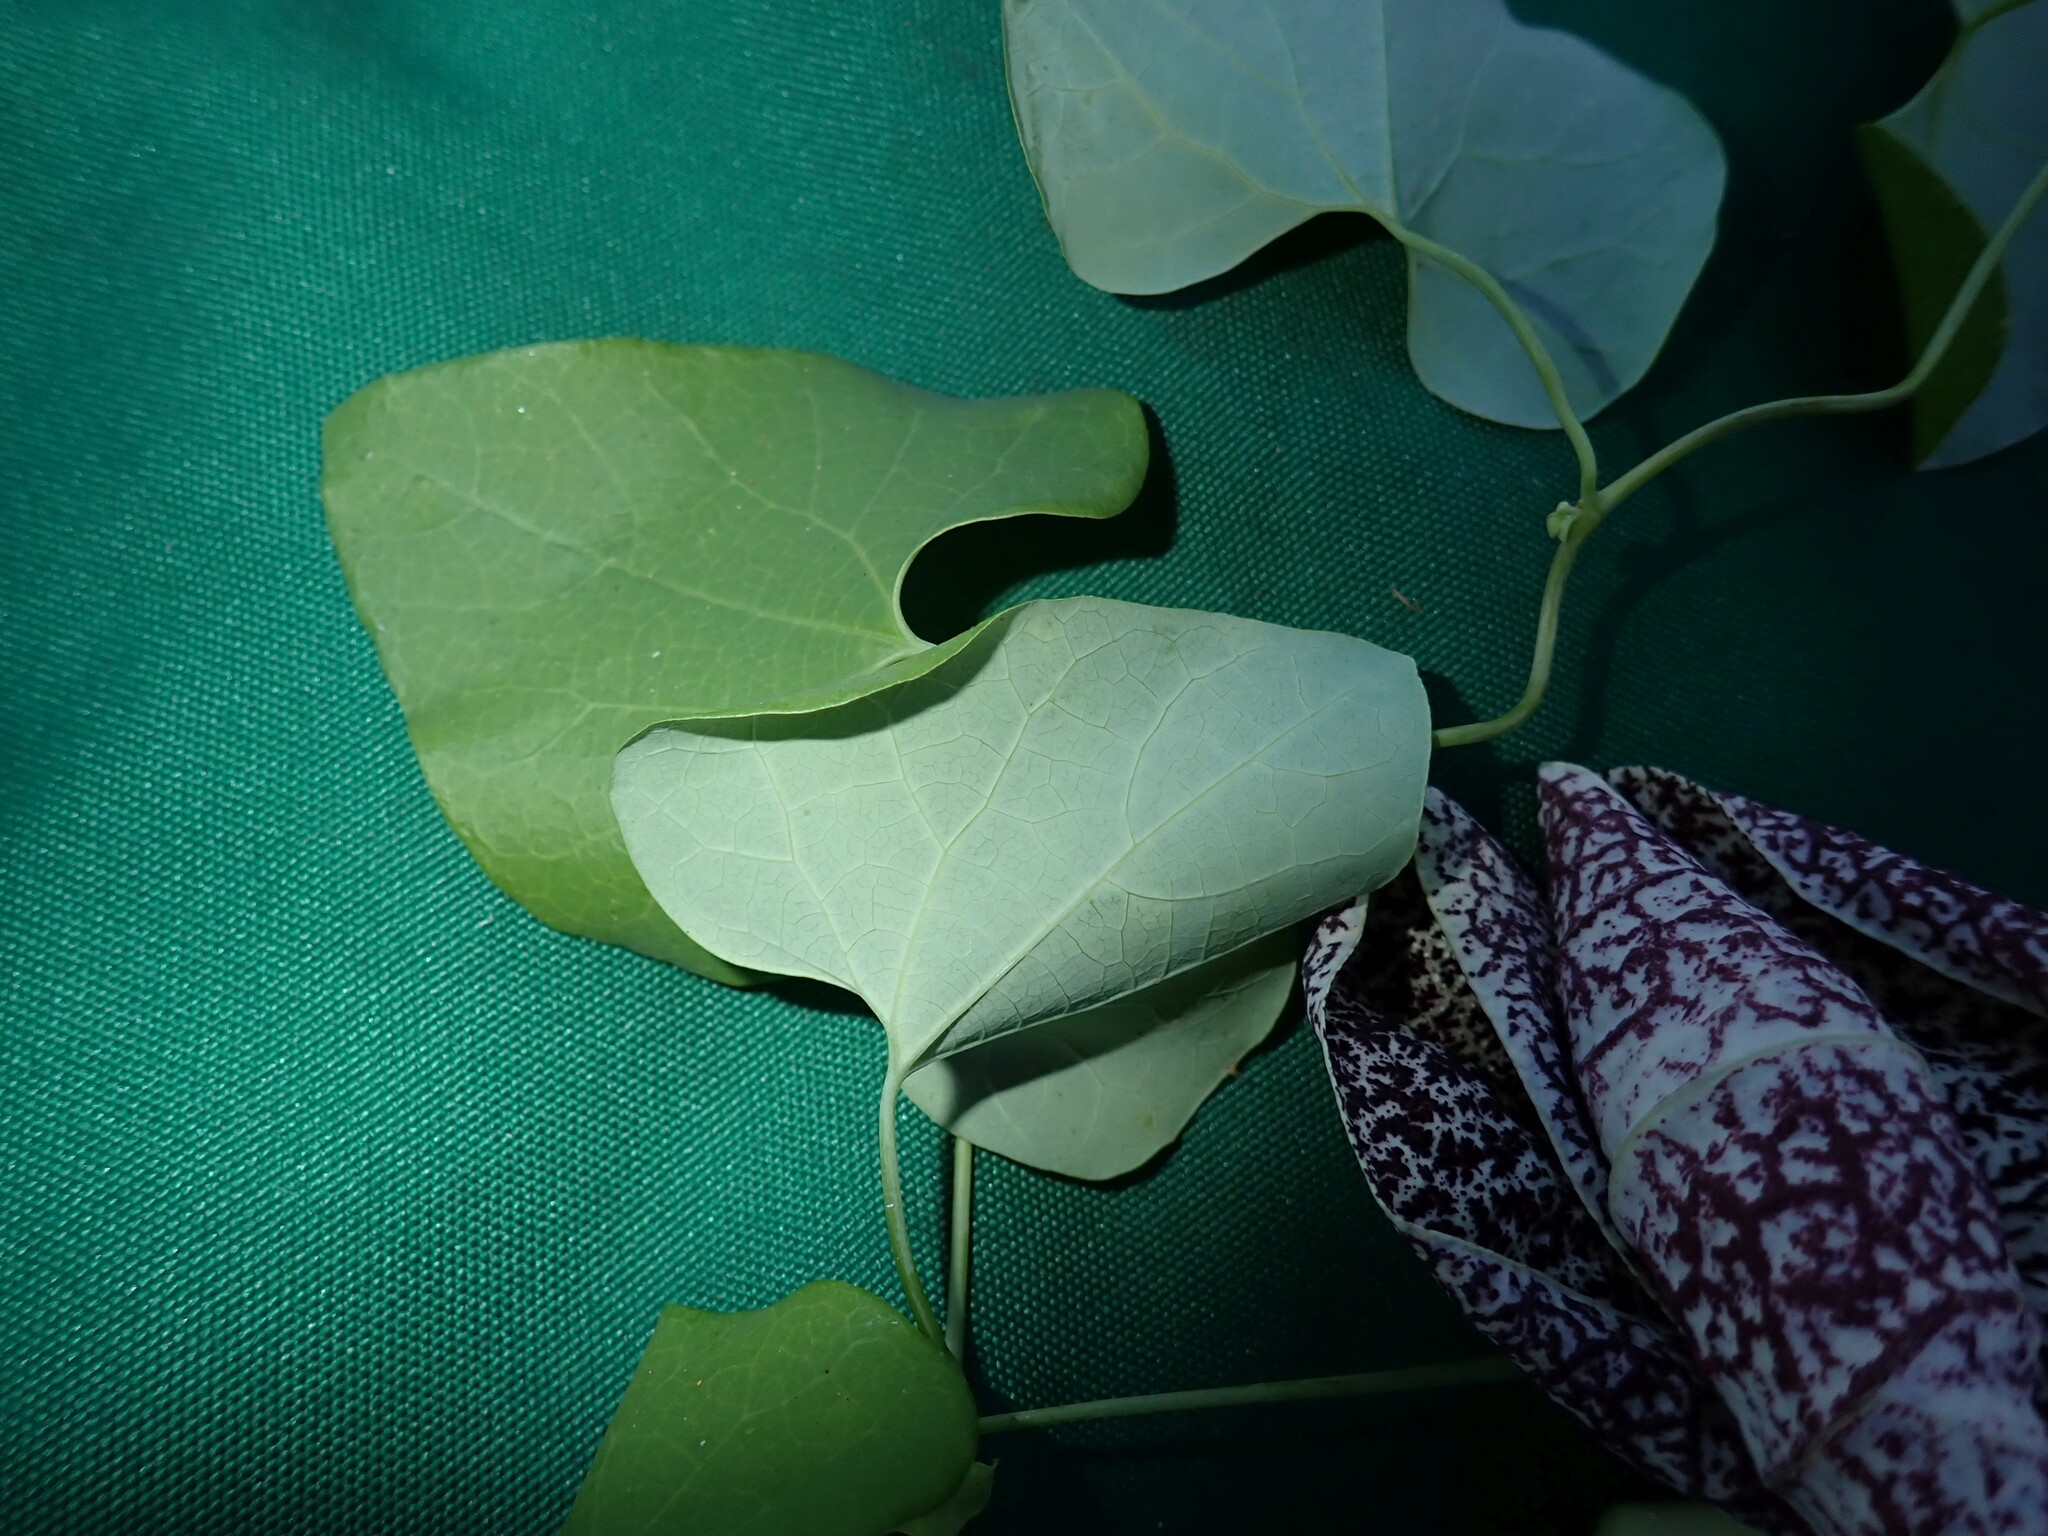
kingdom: Plantae
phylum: Tracheophyta
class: Magnoliopsida
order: Piperales
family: Aristolochiaceae
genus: Aristolochia
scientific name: Aristolochia littoralis
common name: Duck
